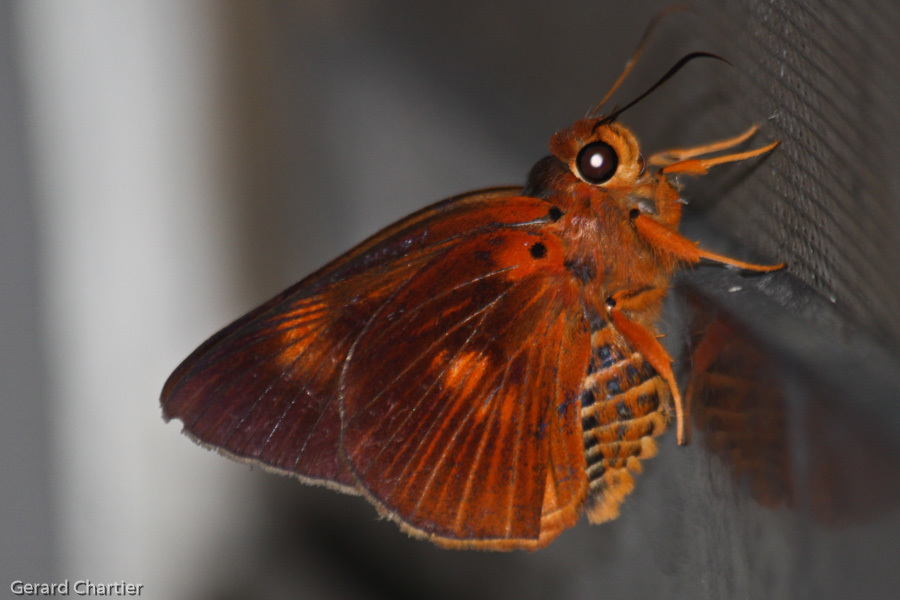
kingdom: Animalia
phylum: Arthropoda
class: Insecta
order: Lepidoptera
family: Hesperiidae
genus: Bibasis
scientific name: Bibasis etelka
